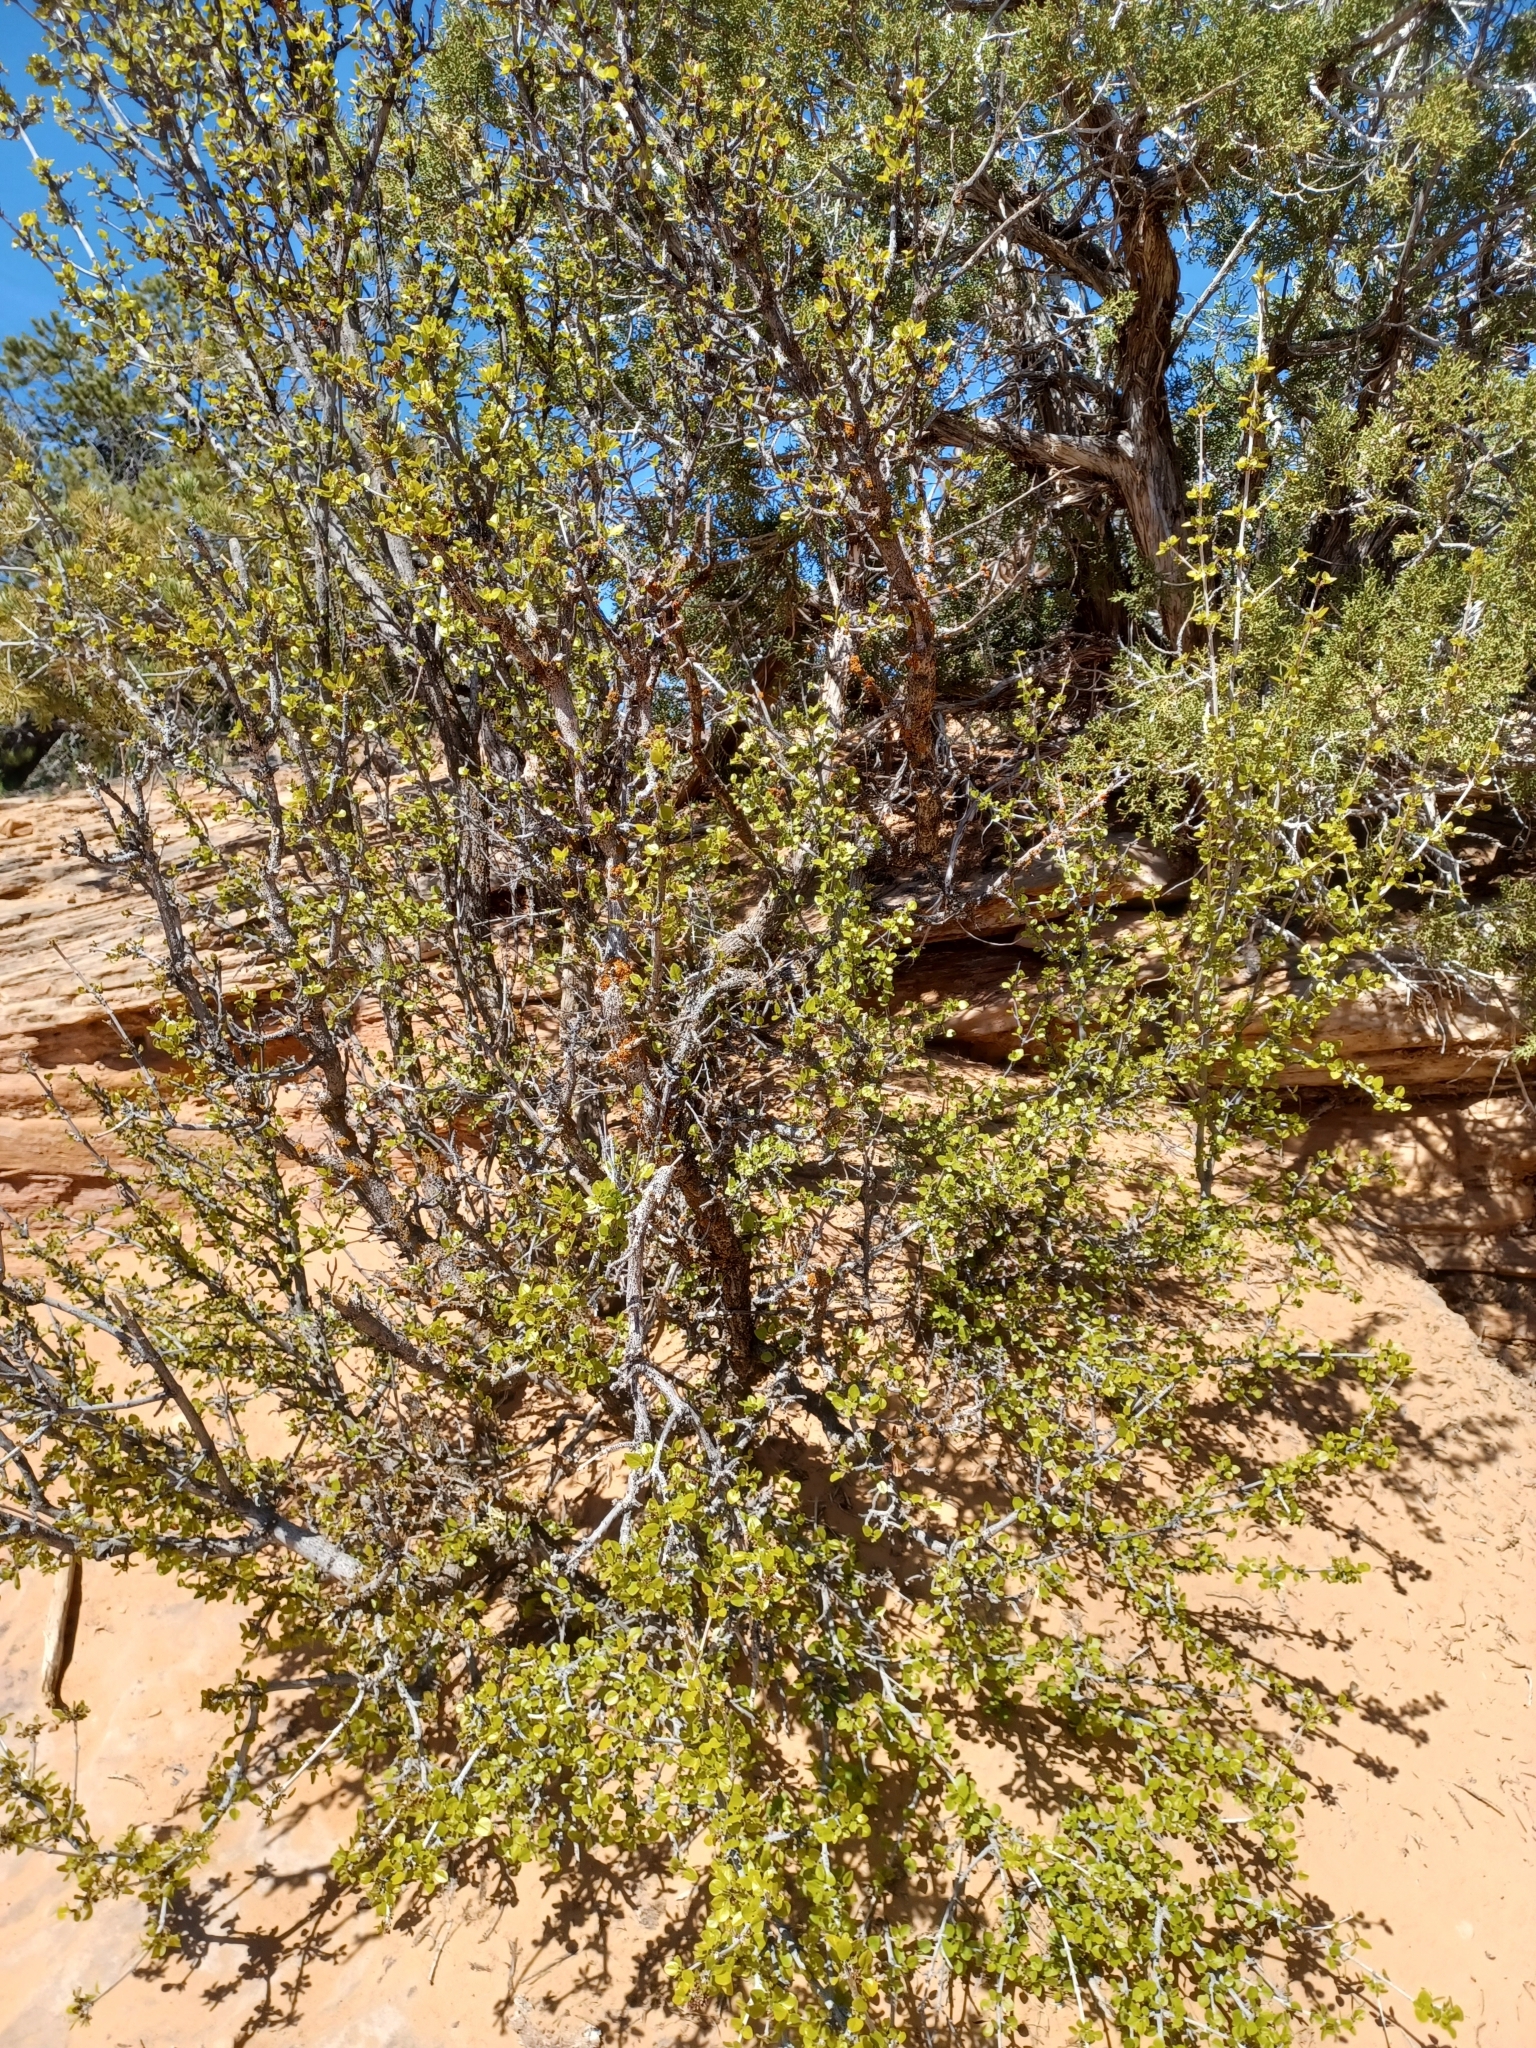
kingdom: Plantae
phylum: Tracheophyta
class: Magnoliopsida
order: Lamiales
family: Oleaceae
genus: Fraxinus
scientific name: Fraxinus anomala
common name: Utah ash
